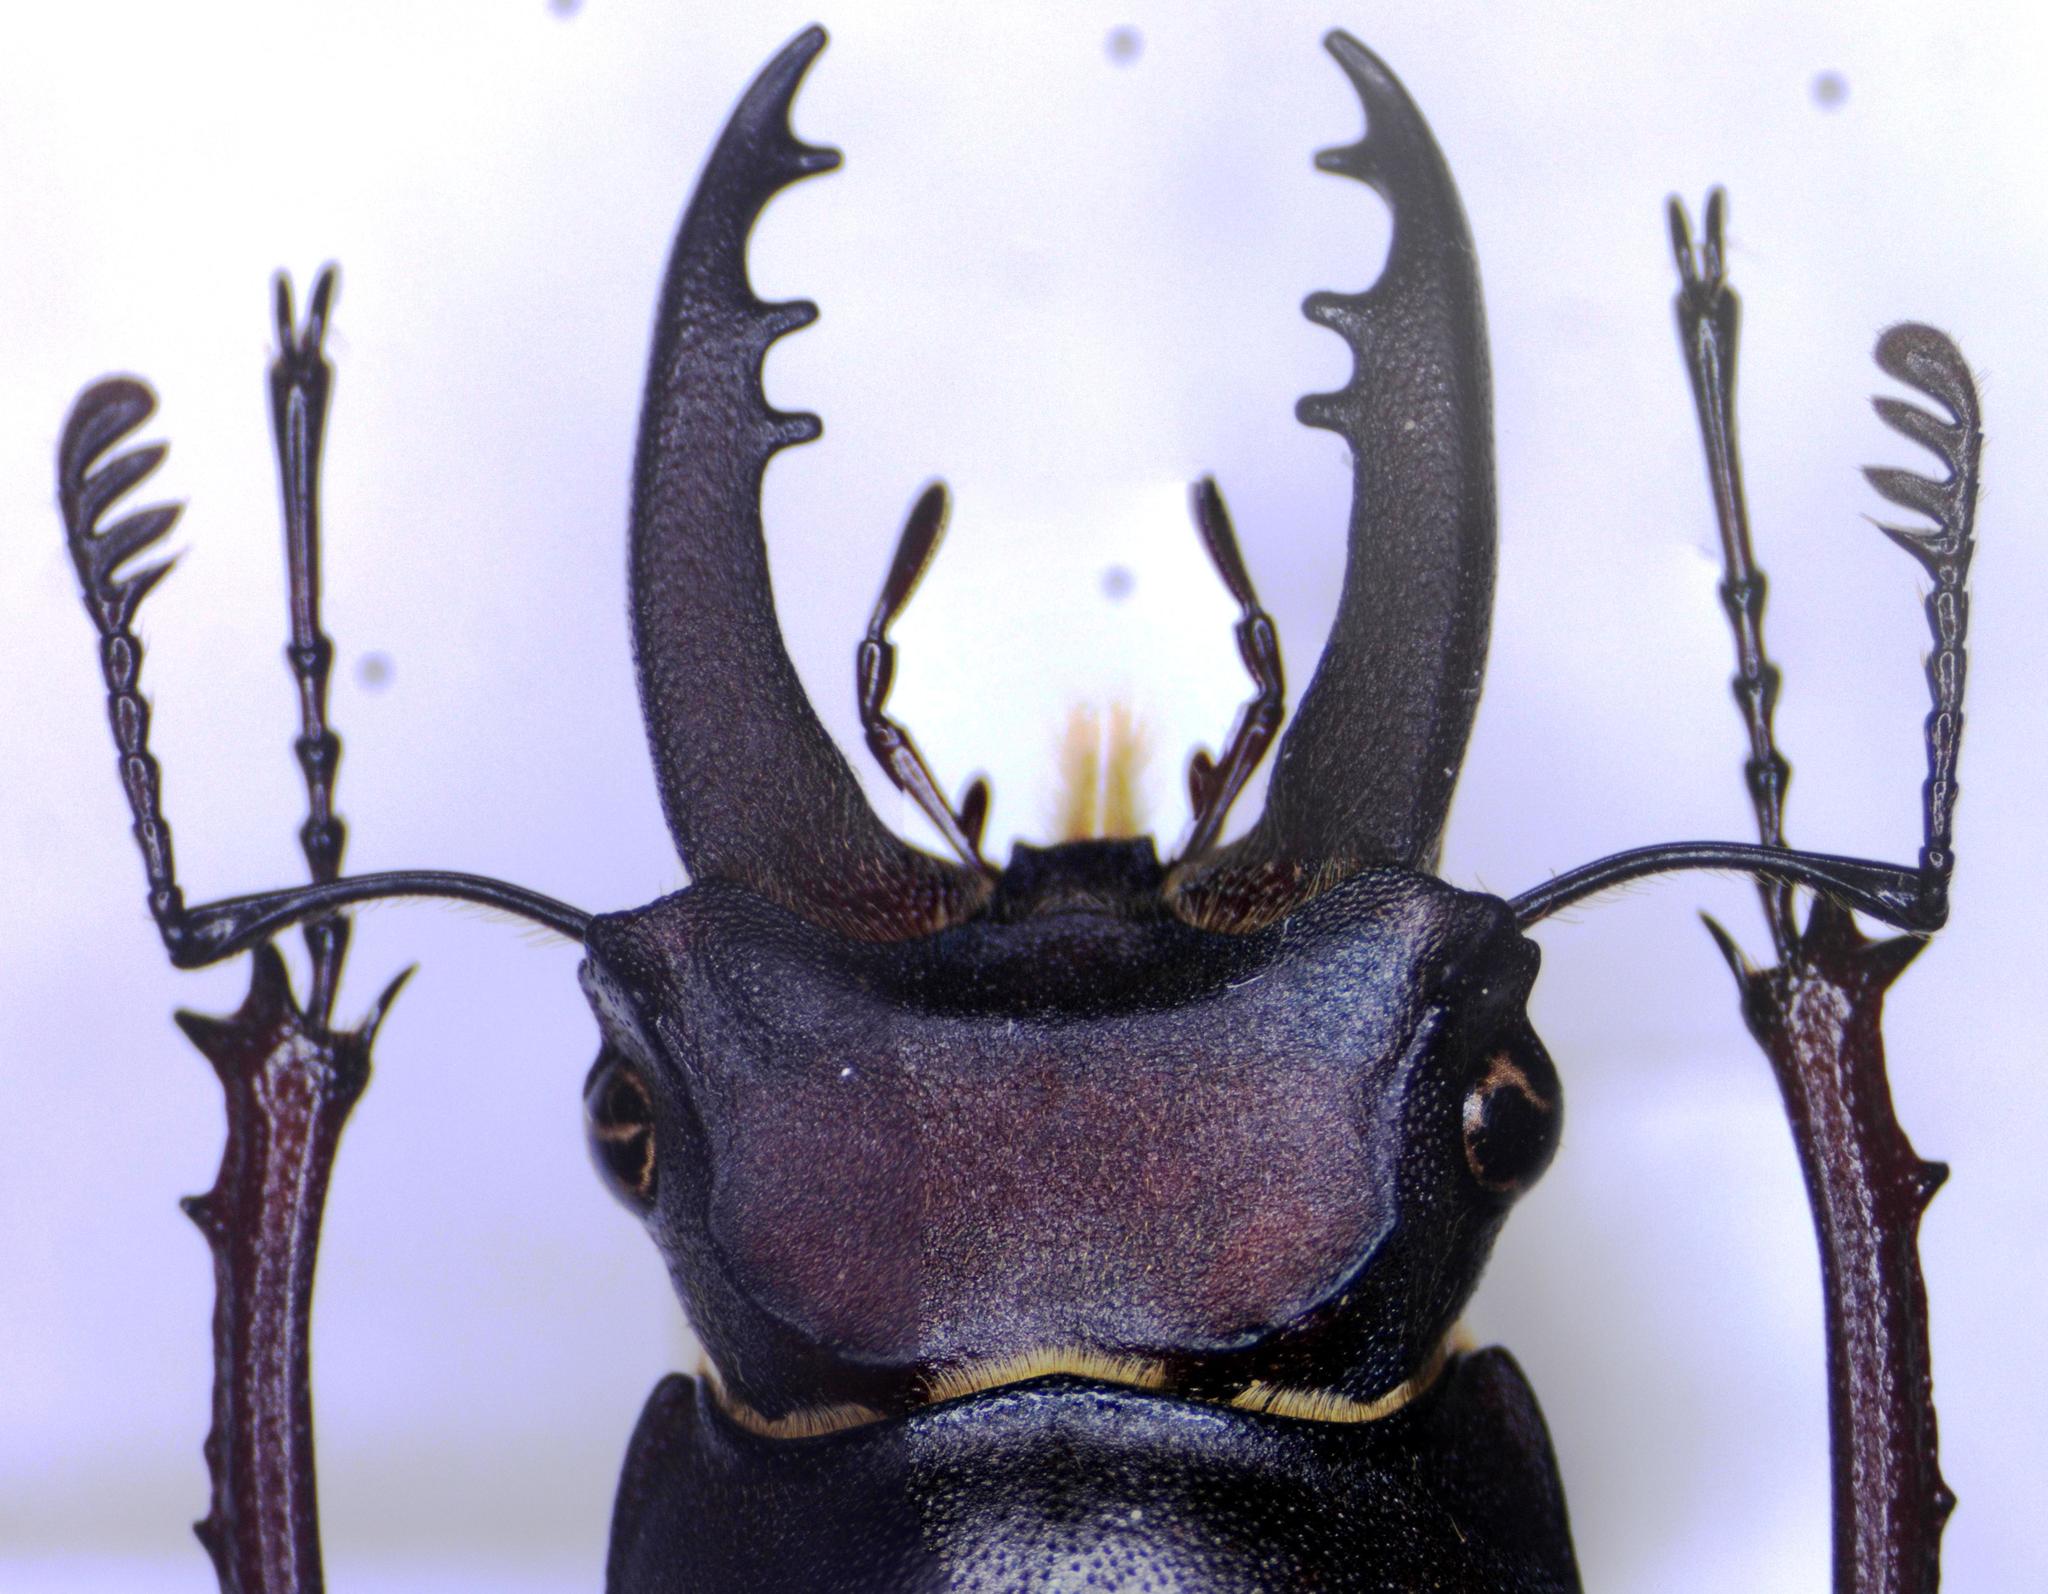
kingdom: Animalia
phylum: Arthropoda
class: Insecta
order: Coleoptera
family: Lucanidae
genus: Lucanus
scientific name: Lucanus
